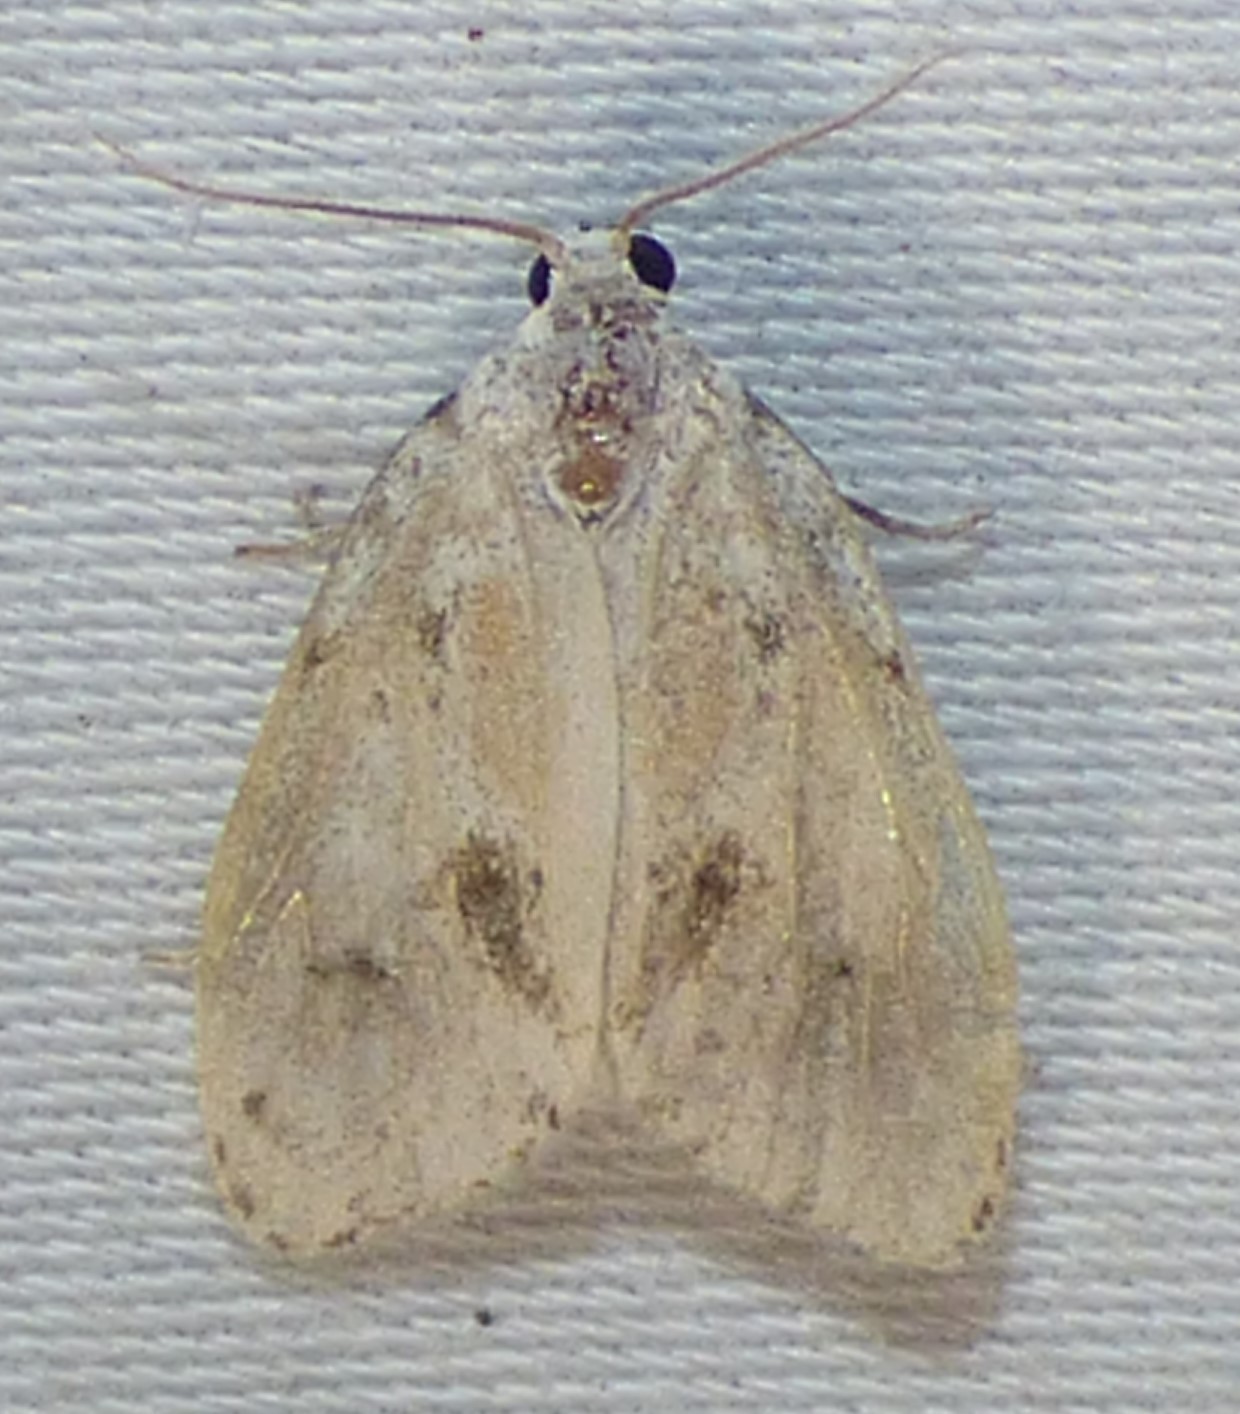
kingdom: Animalia
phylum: Arthropoda
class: Insecta
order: Lepidoptera
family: Erebidae
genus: Clemensia
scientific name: Clemensia albata
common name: Little white lichen moth
